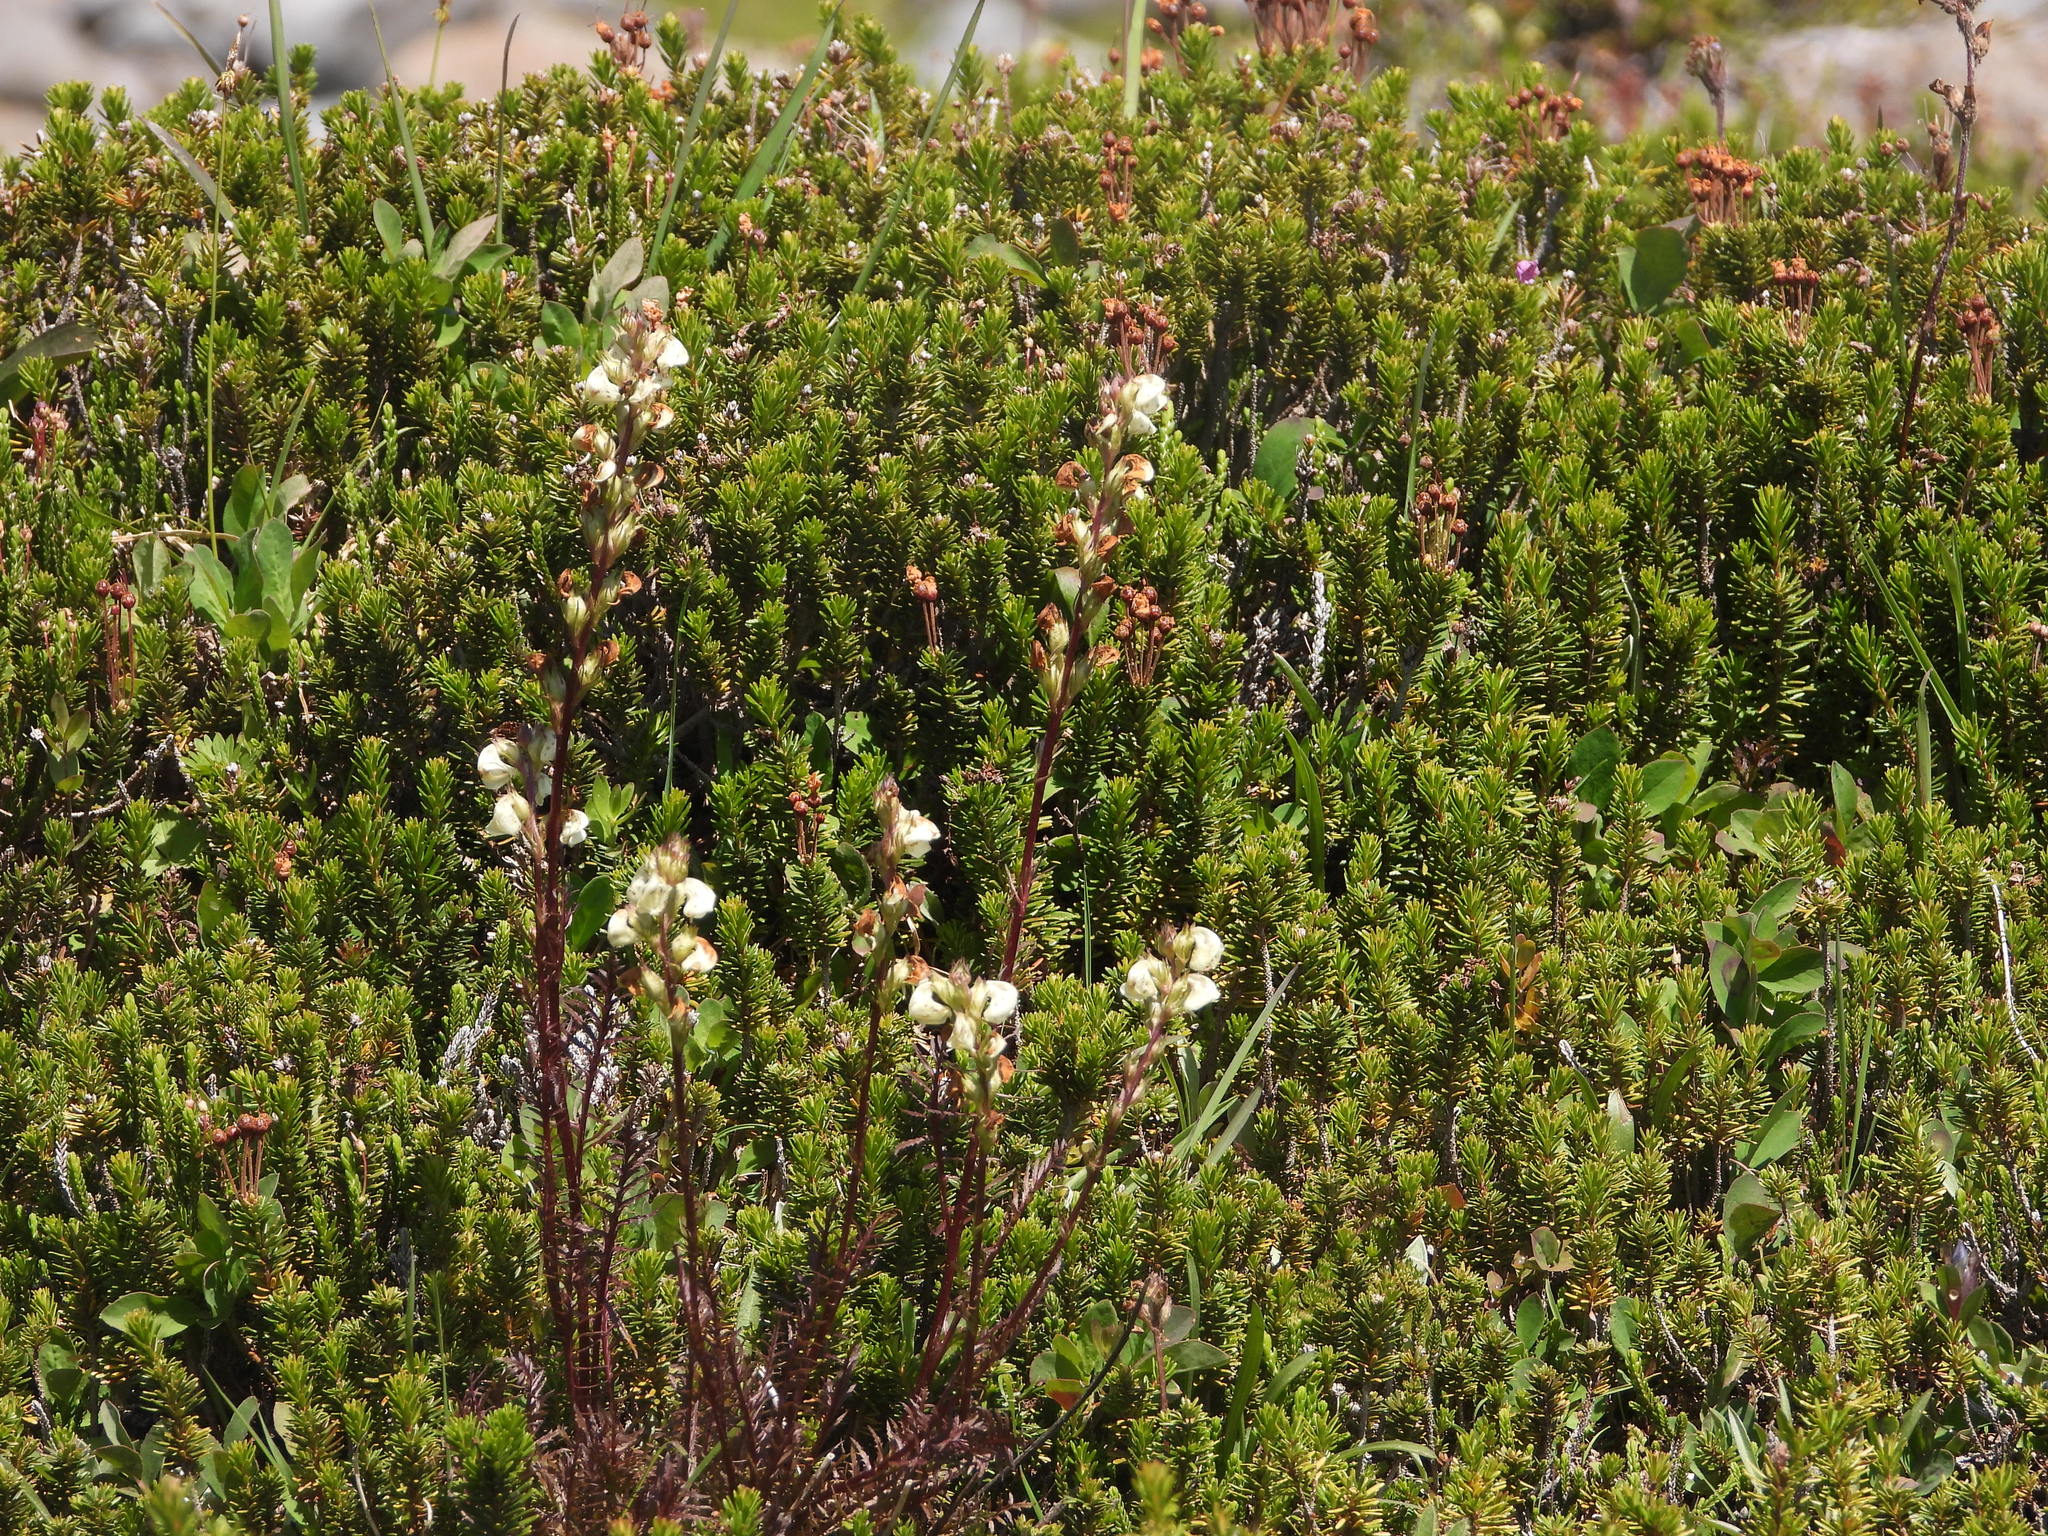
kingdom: Plantae
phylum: Tracheophyta
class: Magnoliopsida
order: Lamiales
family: Orobanchaceae
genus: Pedicularis
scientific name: Pedicularis contorta
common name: Coiled lousewort
